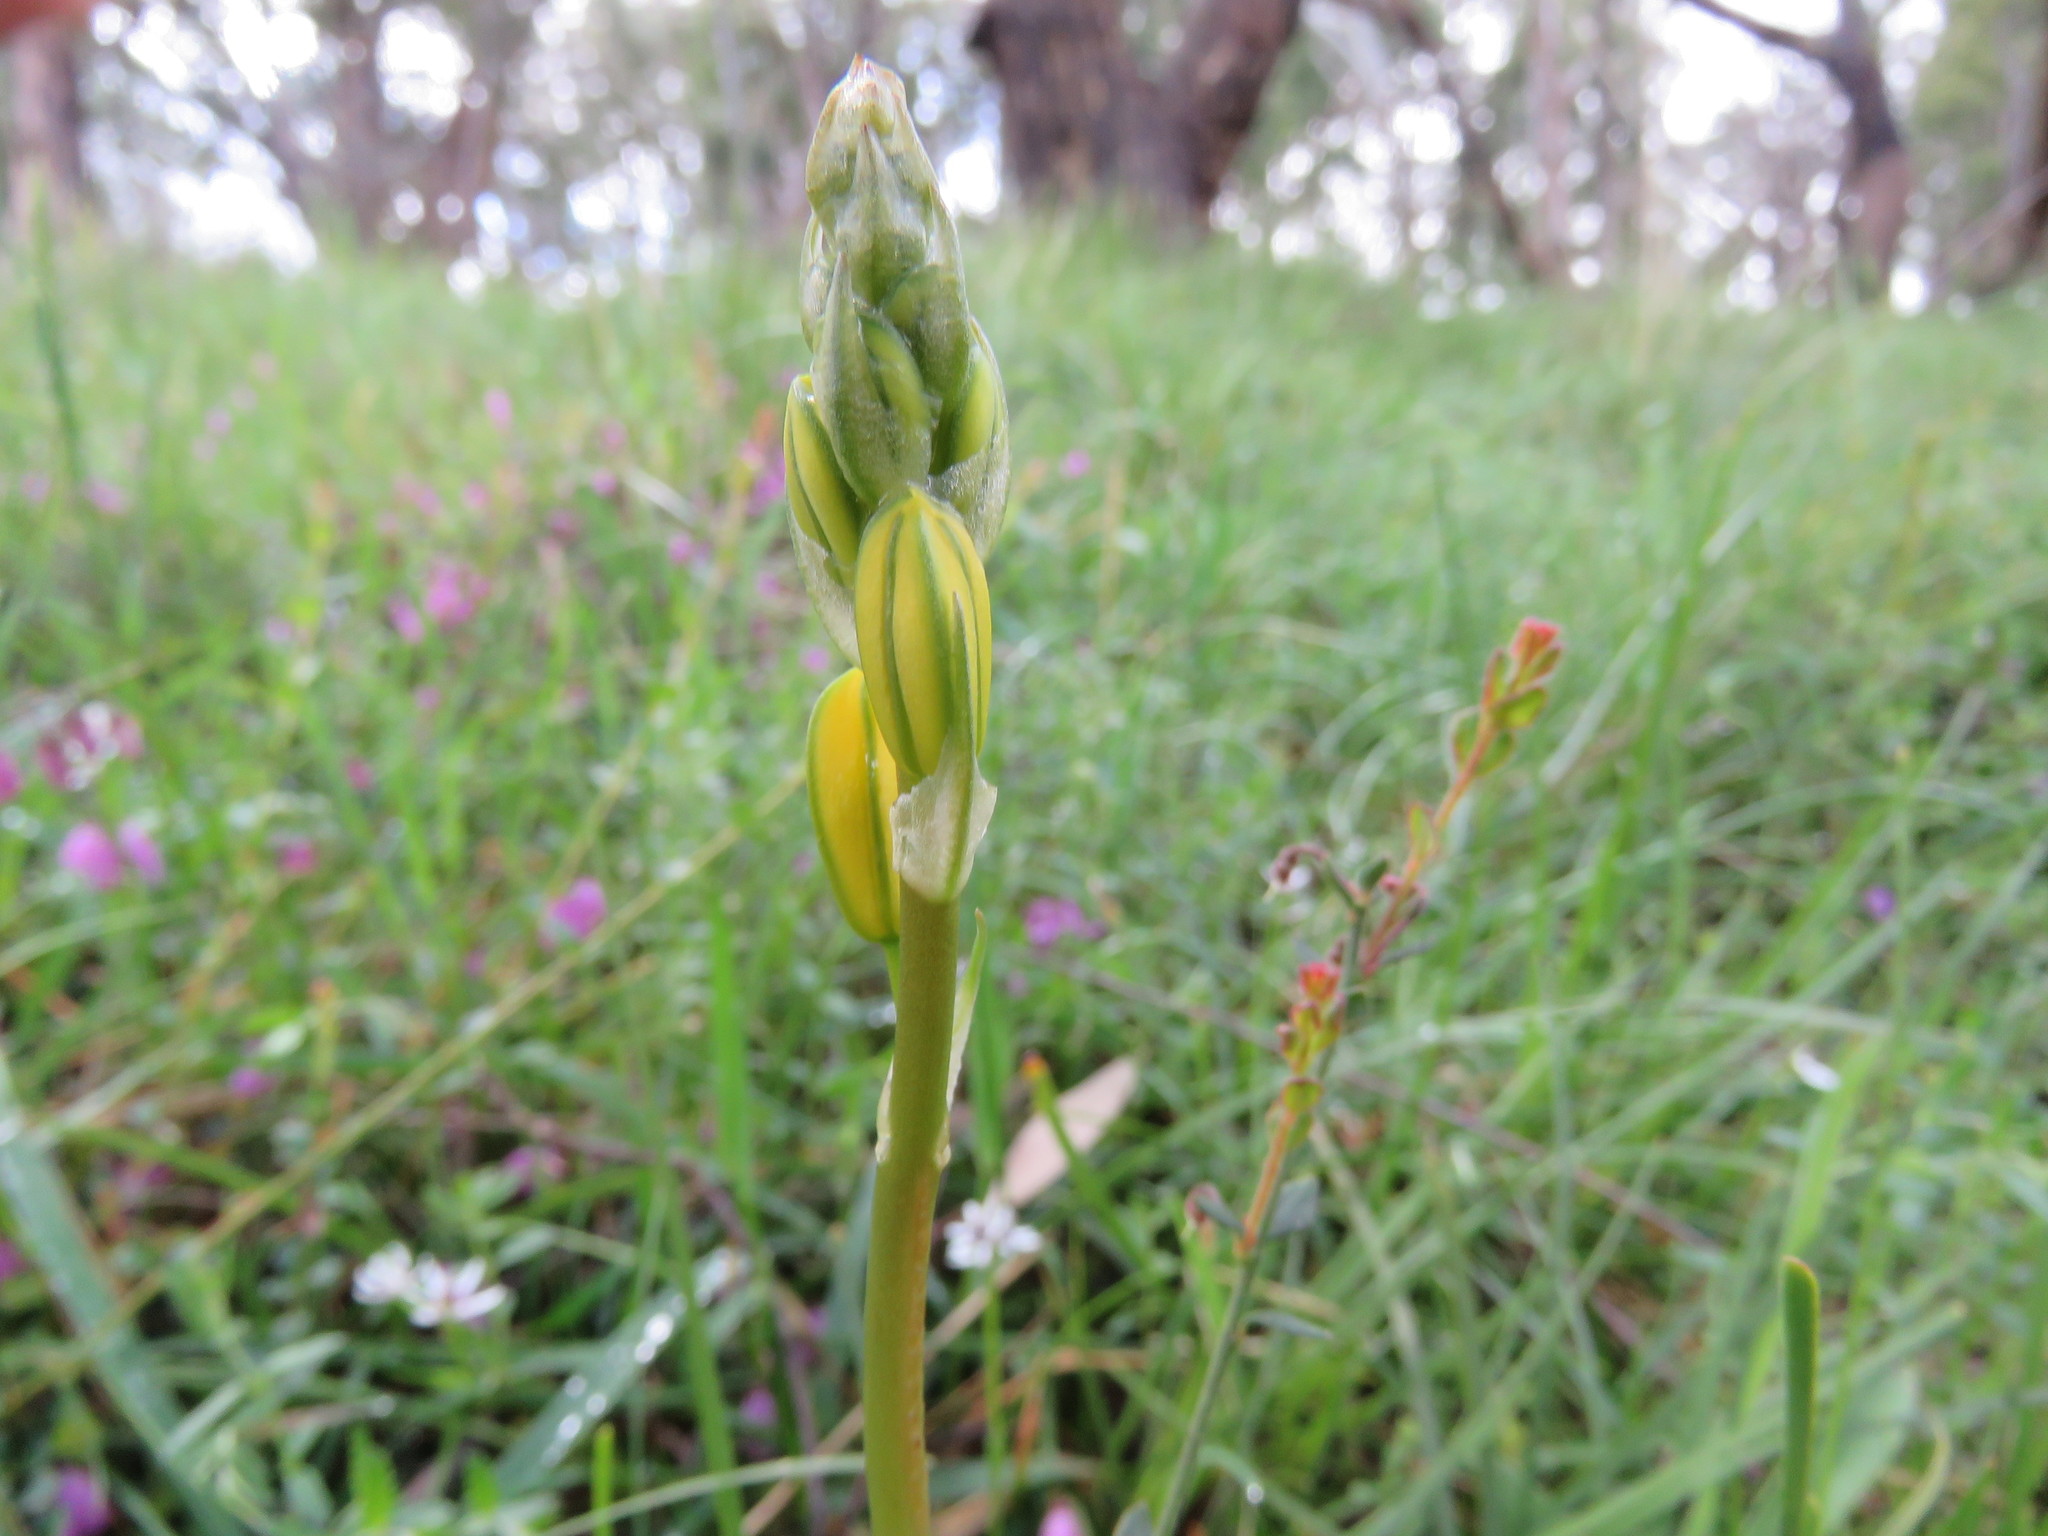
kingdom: Plantae
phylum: Tracheophyta
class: Liliopsida
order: Asparagales
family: Asphodelaceae
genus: Bulbine
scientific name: Bulbine bulbosa
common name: Golden-lily
